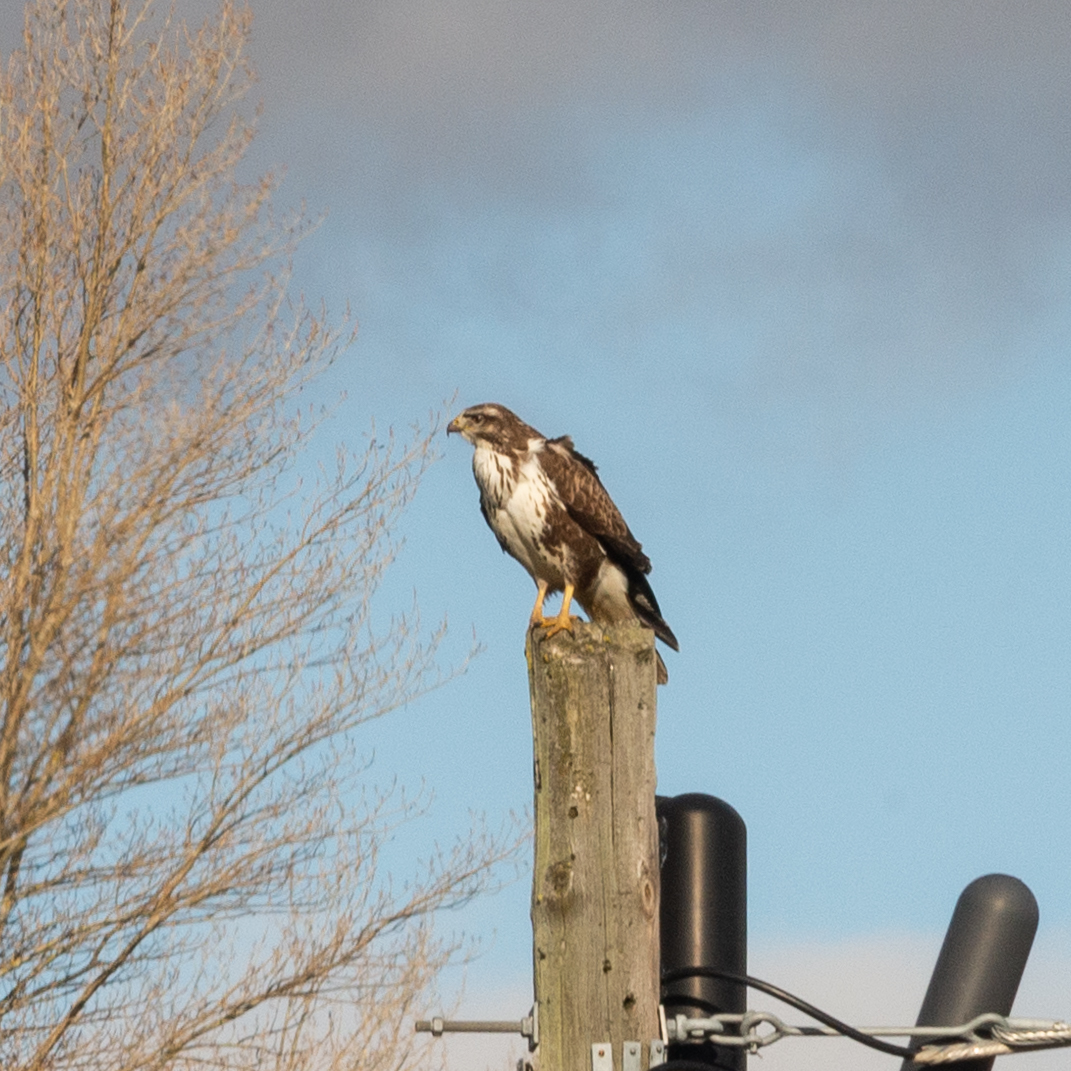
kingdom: Animalia
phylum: Chordata
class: Aves
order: Accipitriformes
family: Accipitridae
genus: Buteo
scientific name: Buteo buteo
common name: Common buzzard
